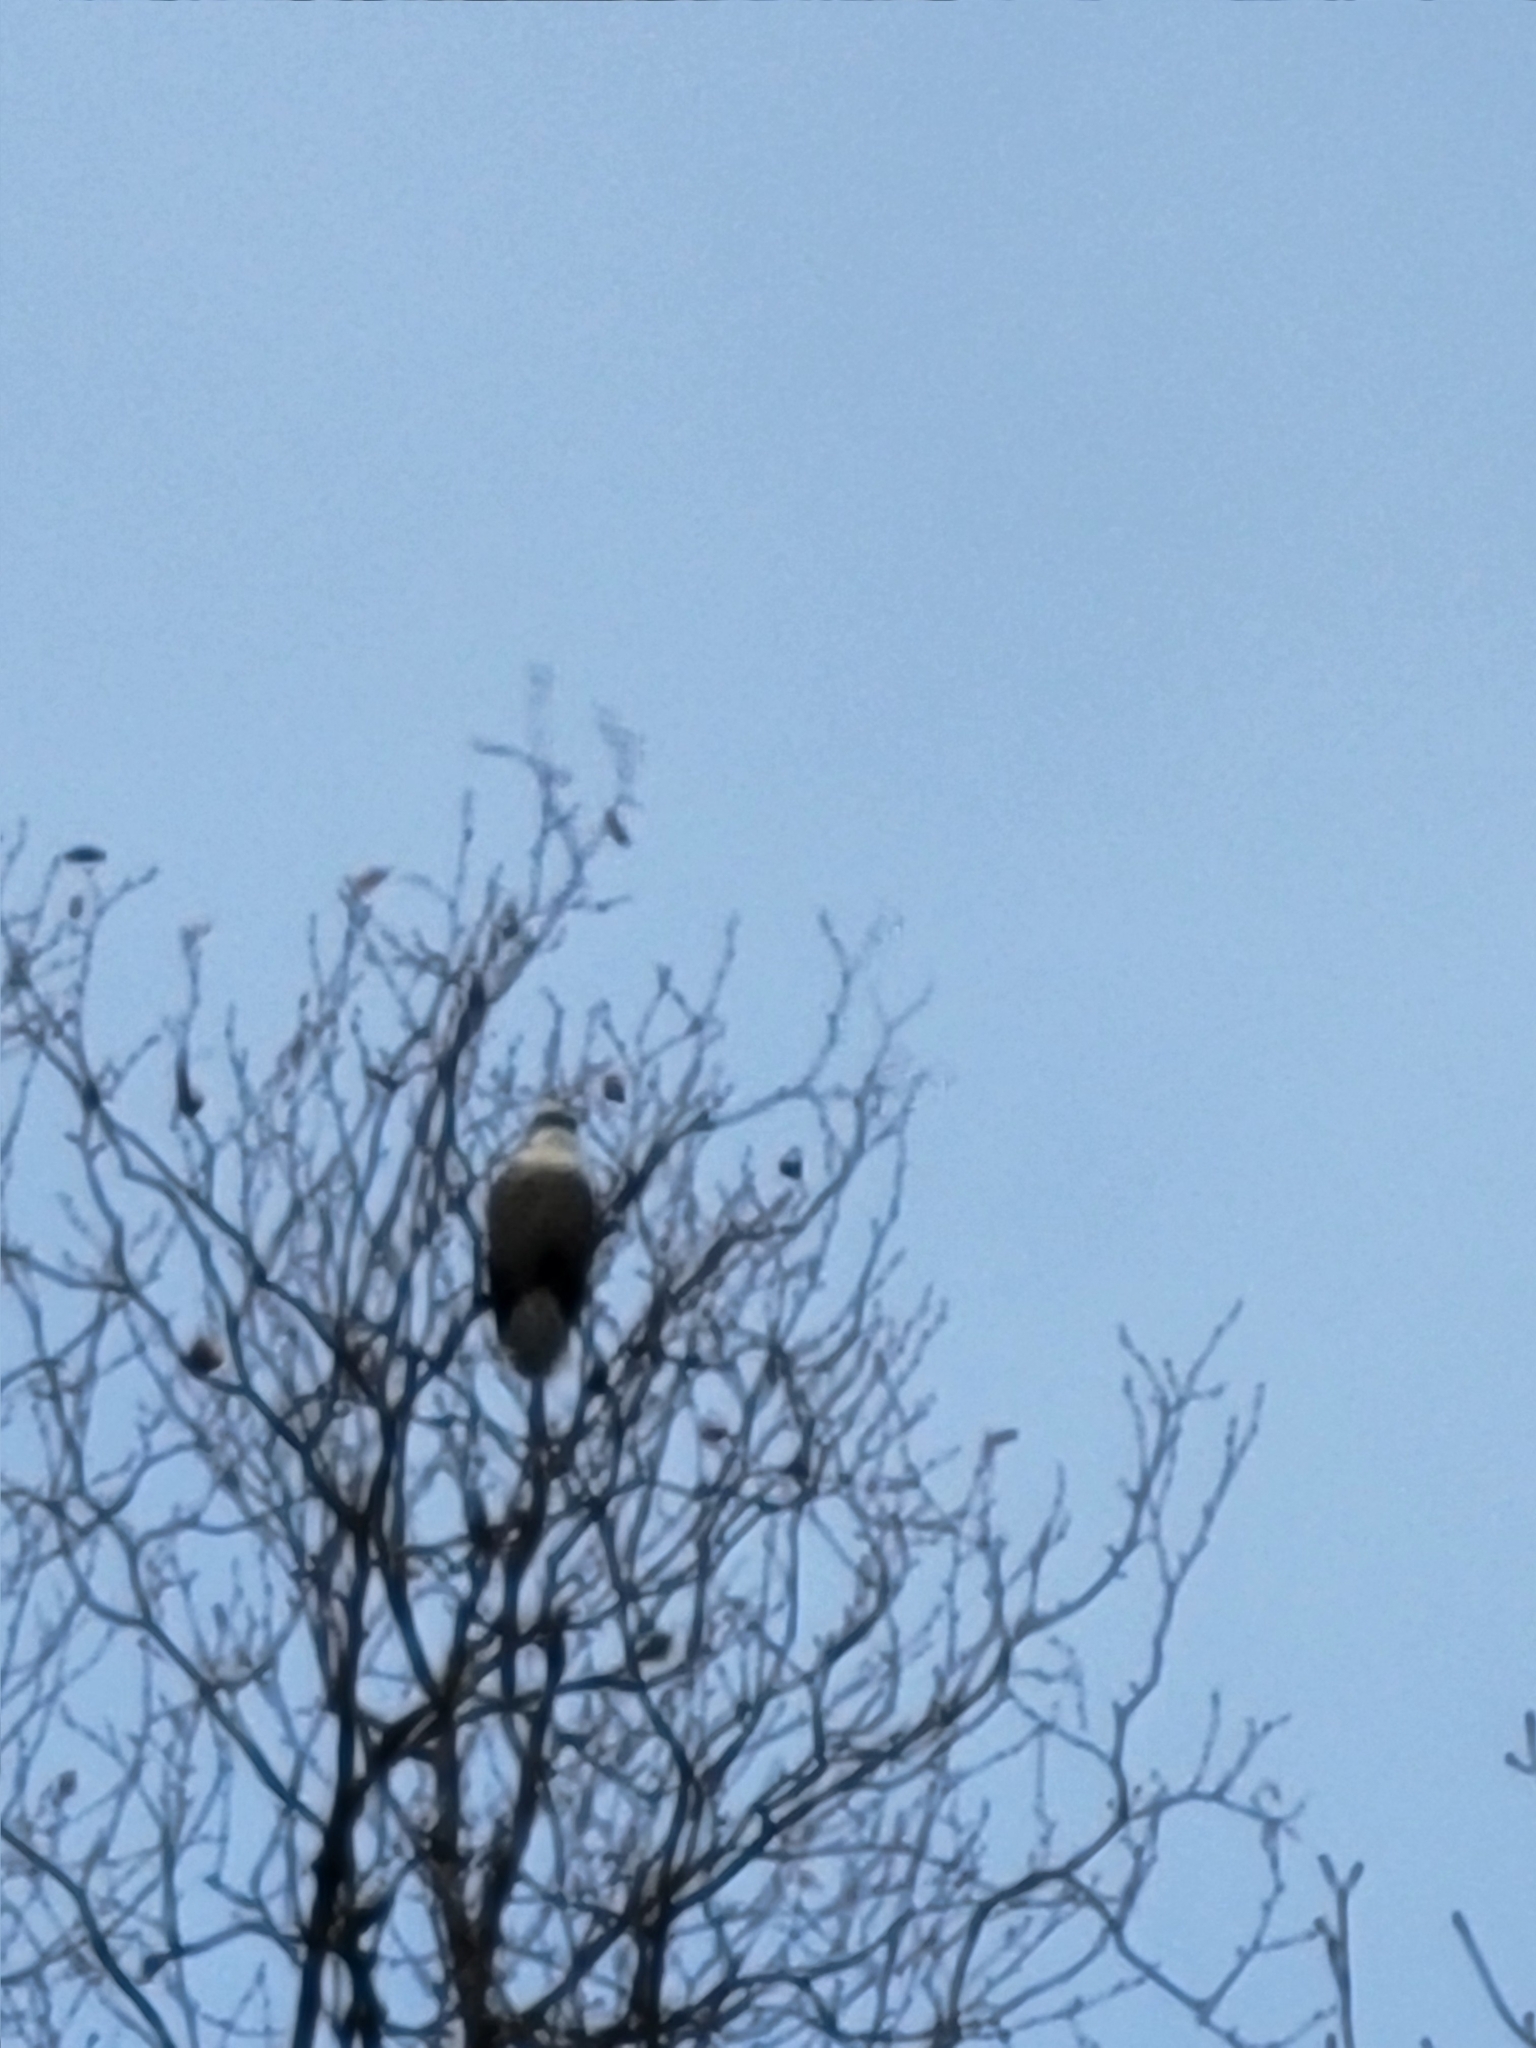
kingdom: Animalia
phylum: Chordata
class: Aves
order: Passeriformes
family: Corvidae
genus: Perisoreus
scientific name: Perisoreus canadensis
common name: Gray jay
